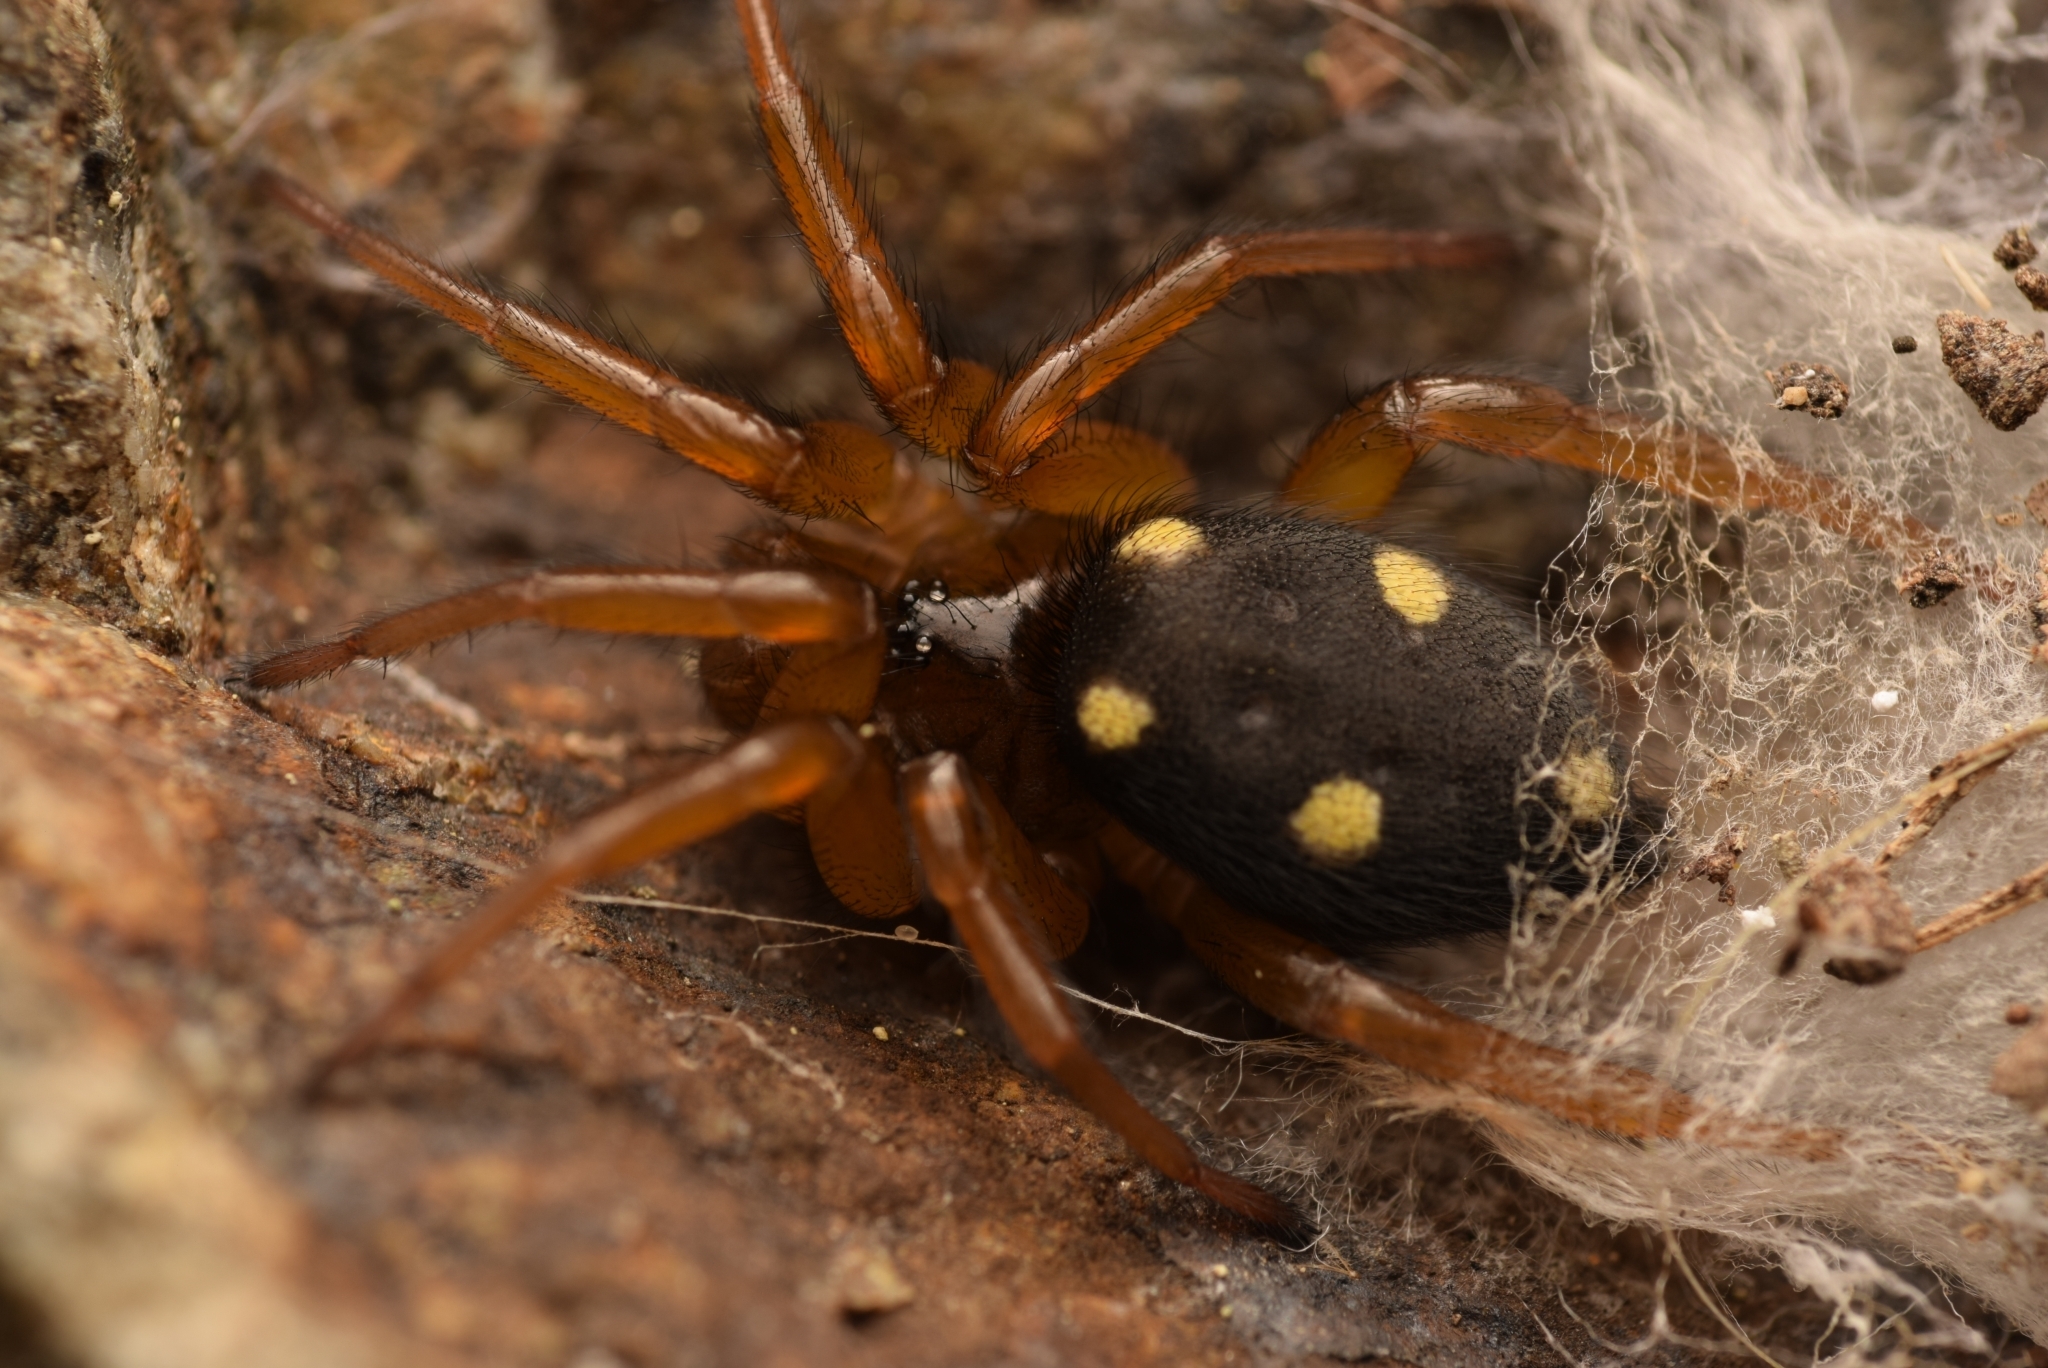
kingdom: Animalia
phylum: Arthropoda
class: Arachnida
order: Araneae
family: Oecobiidae
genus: Uroctea
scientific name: Uroctea durandi
